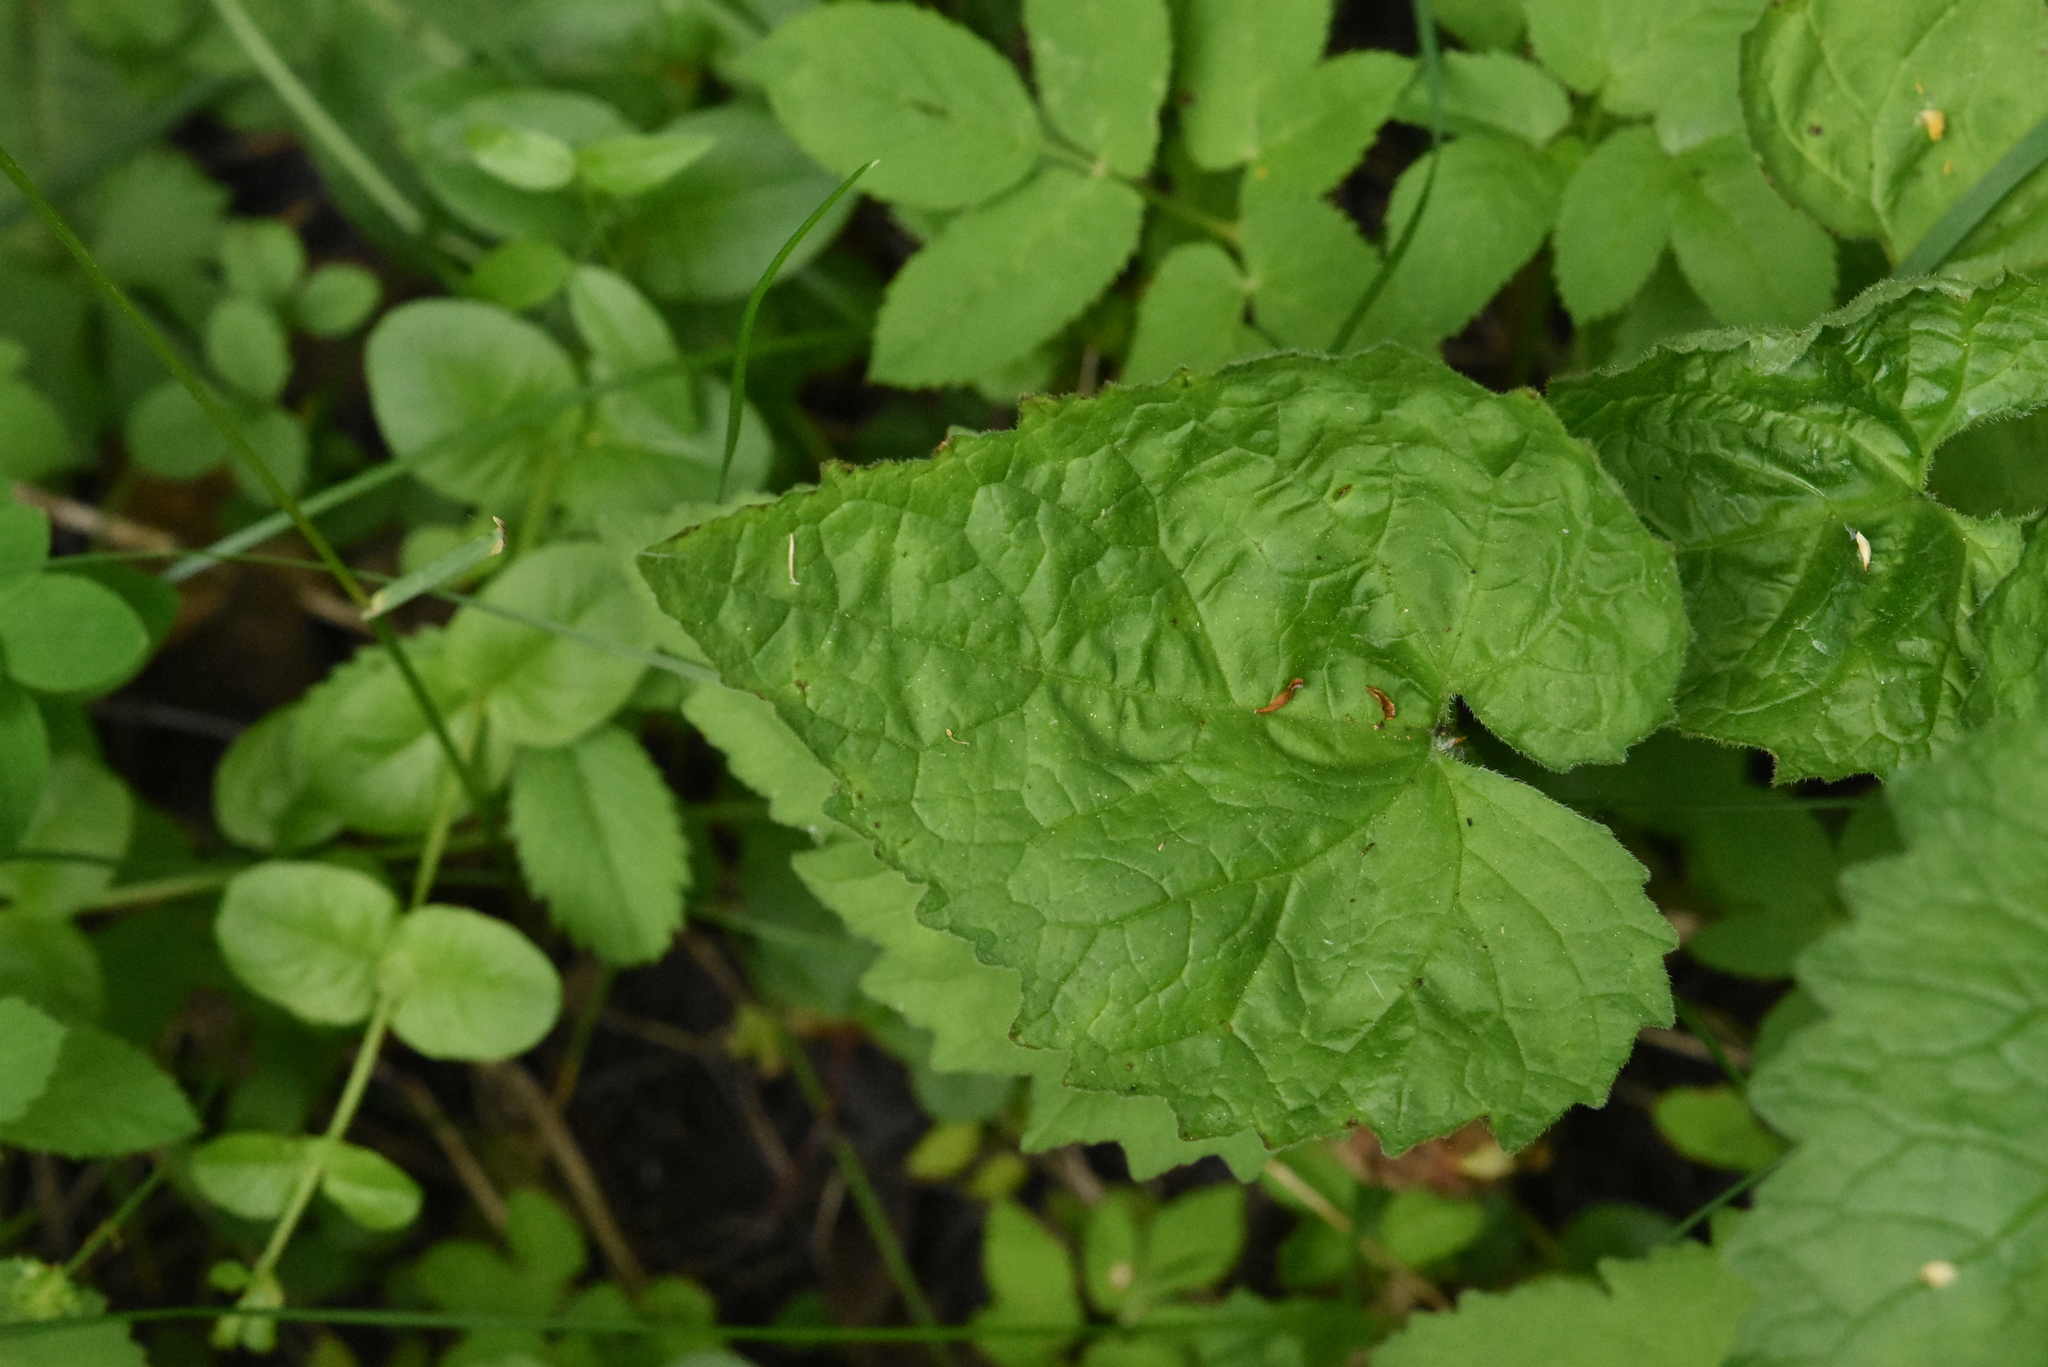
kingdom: Plantae
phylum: Tracheophyta
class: Magnoliopsida
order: Asterales
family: Campanulaceae
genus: Campanula
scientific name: Campanula trachelium
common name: Nettle-leaved bellflower
